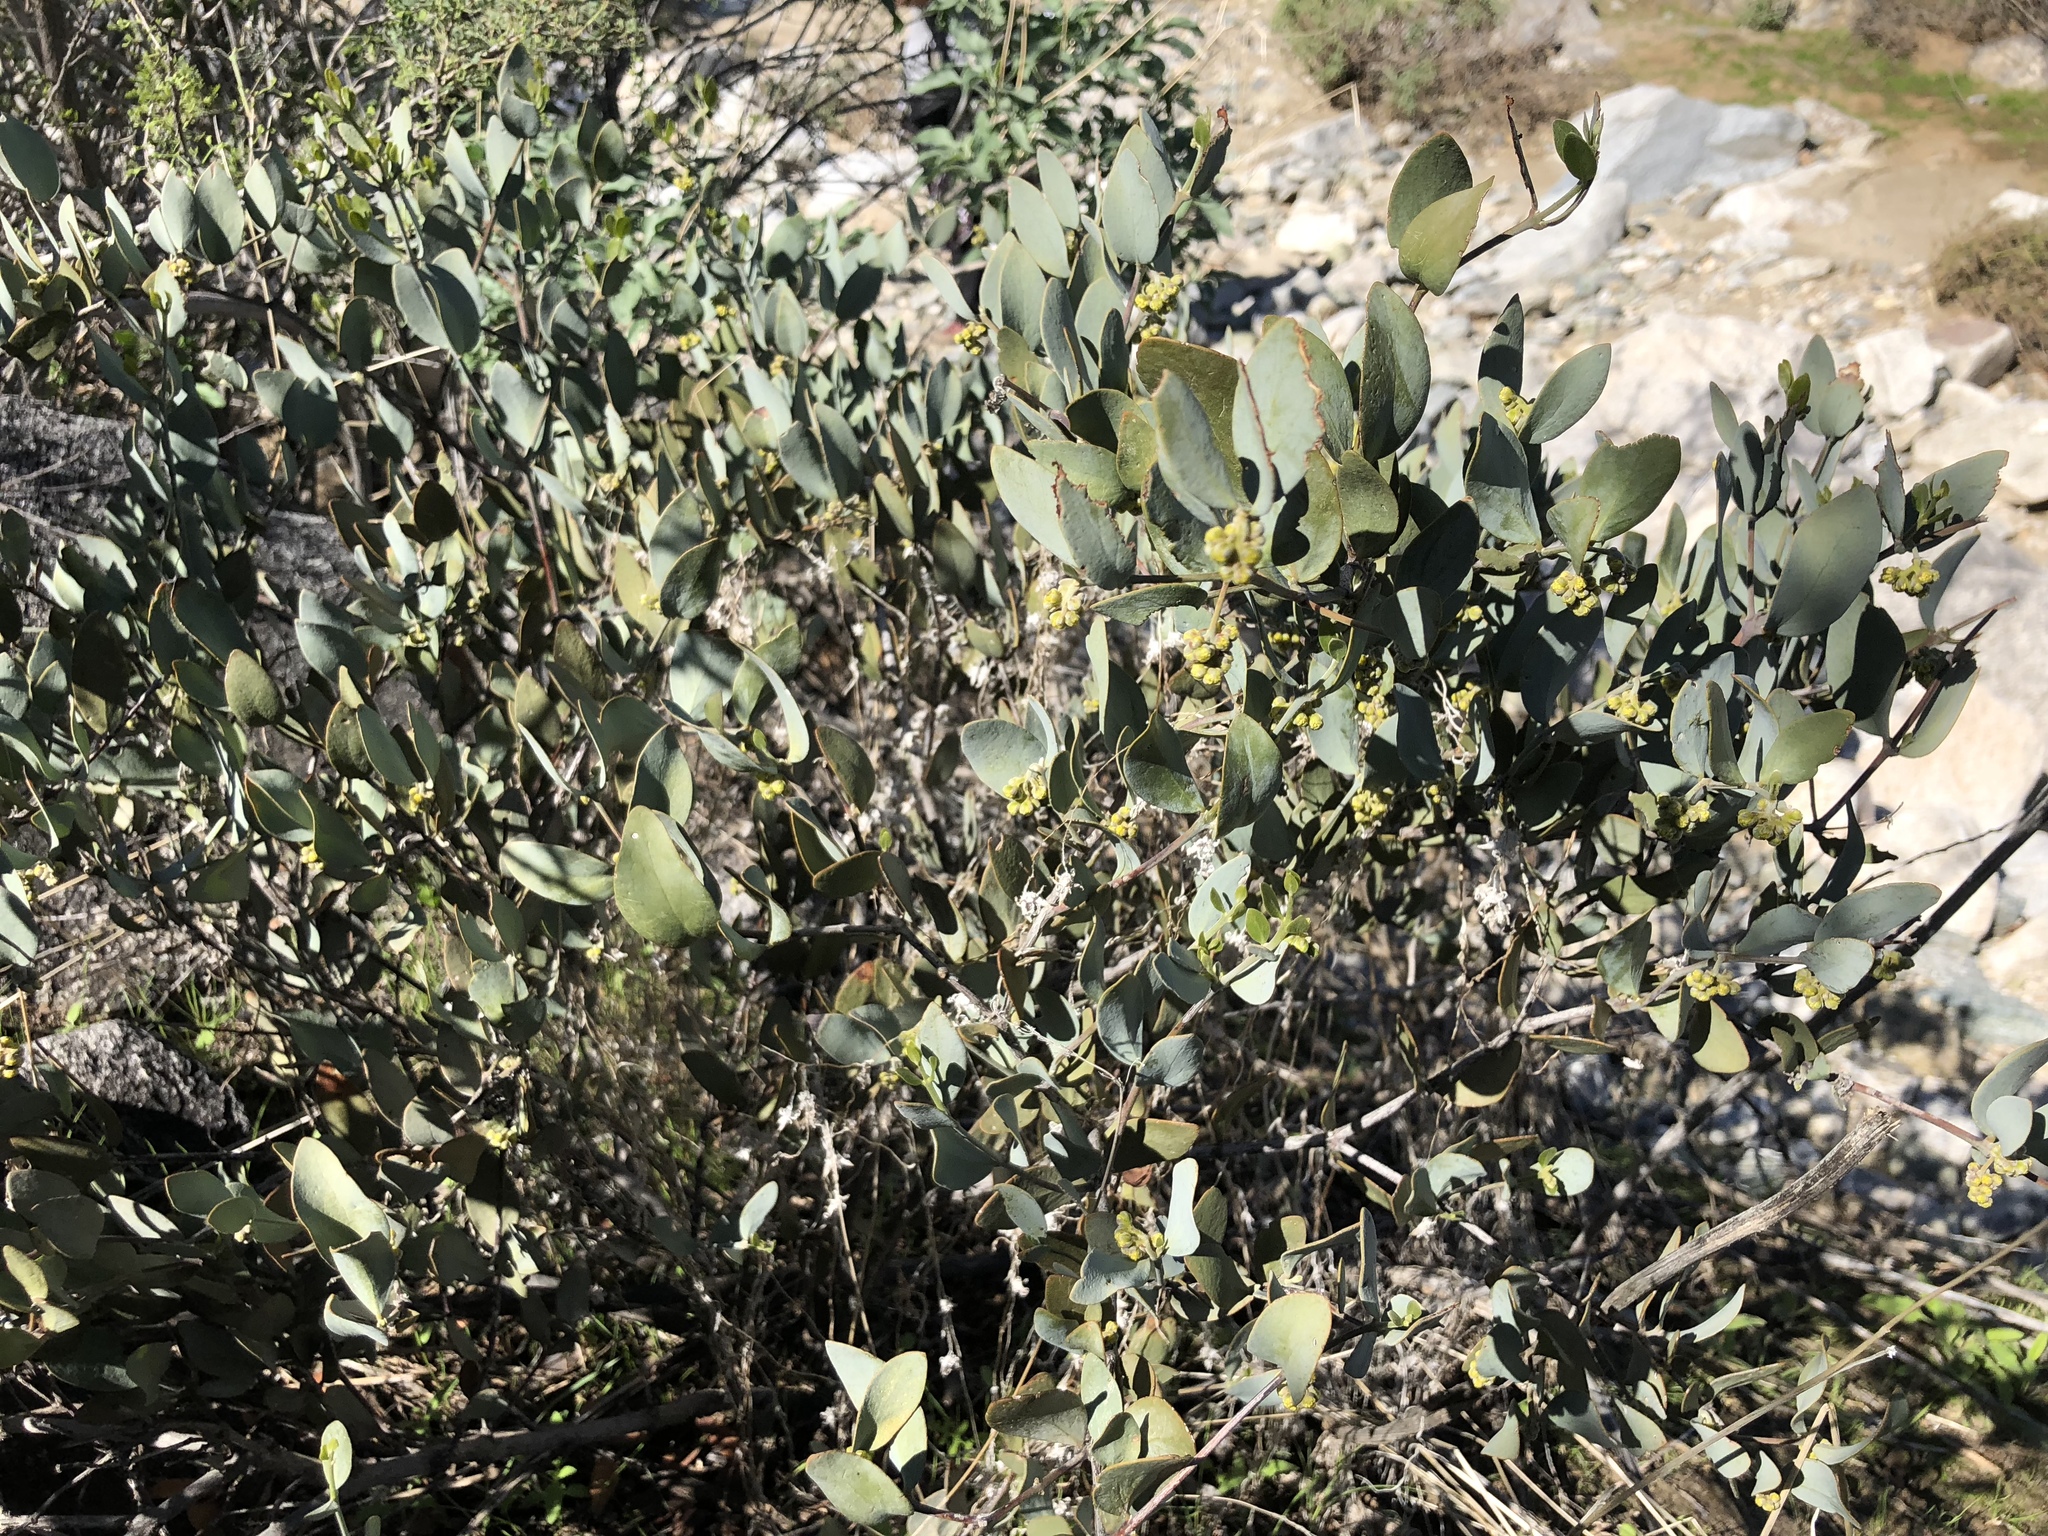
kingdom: Plantae
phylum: Tracheophyta
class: Magnoliopsida
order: Caryophyllales
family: Simmondsiaceae
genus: Simmondsia
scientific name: Simmondsia chinensis
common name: Jojoba
